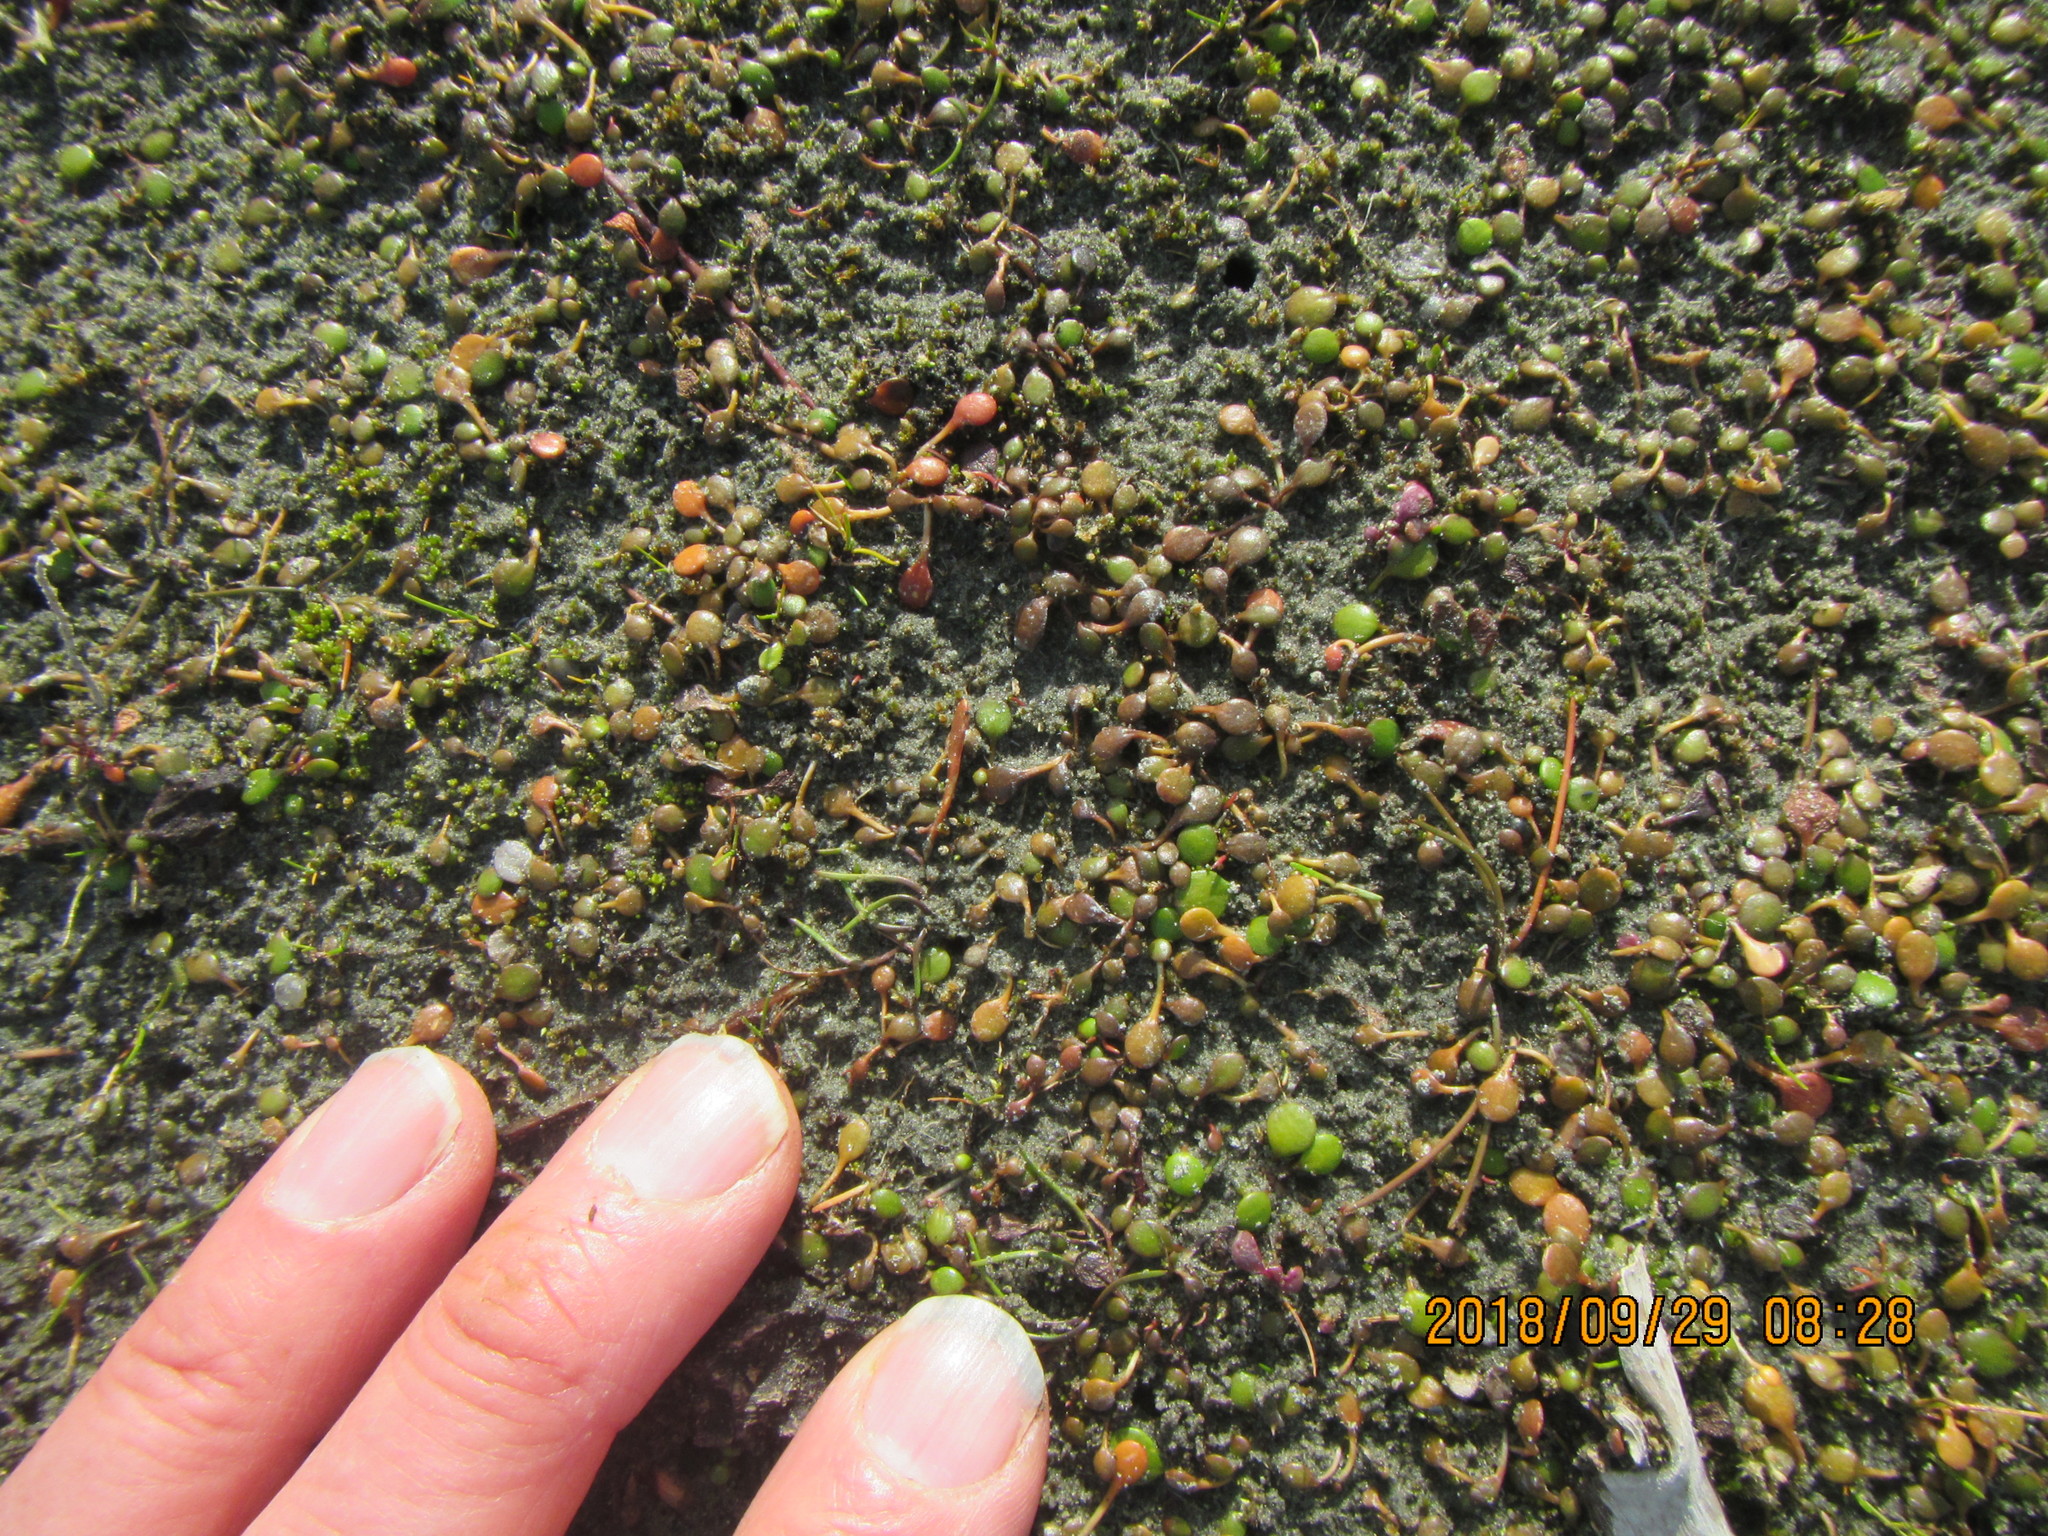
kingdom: Plantae
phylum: Tracheophyta
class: Magnoliopsida
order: Asterales
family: Goodeniaceae
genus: Goodenia
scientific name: Goodenia heenanii
